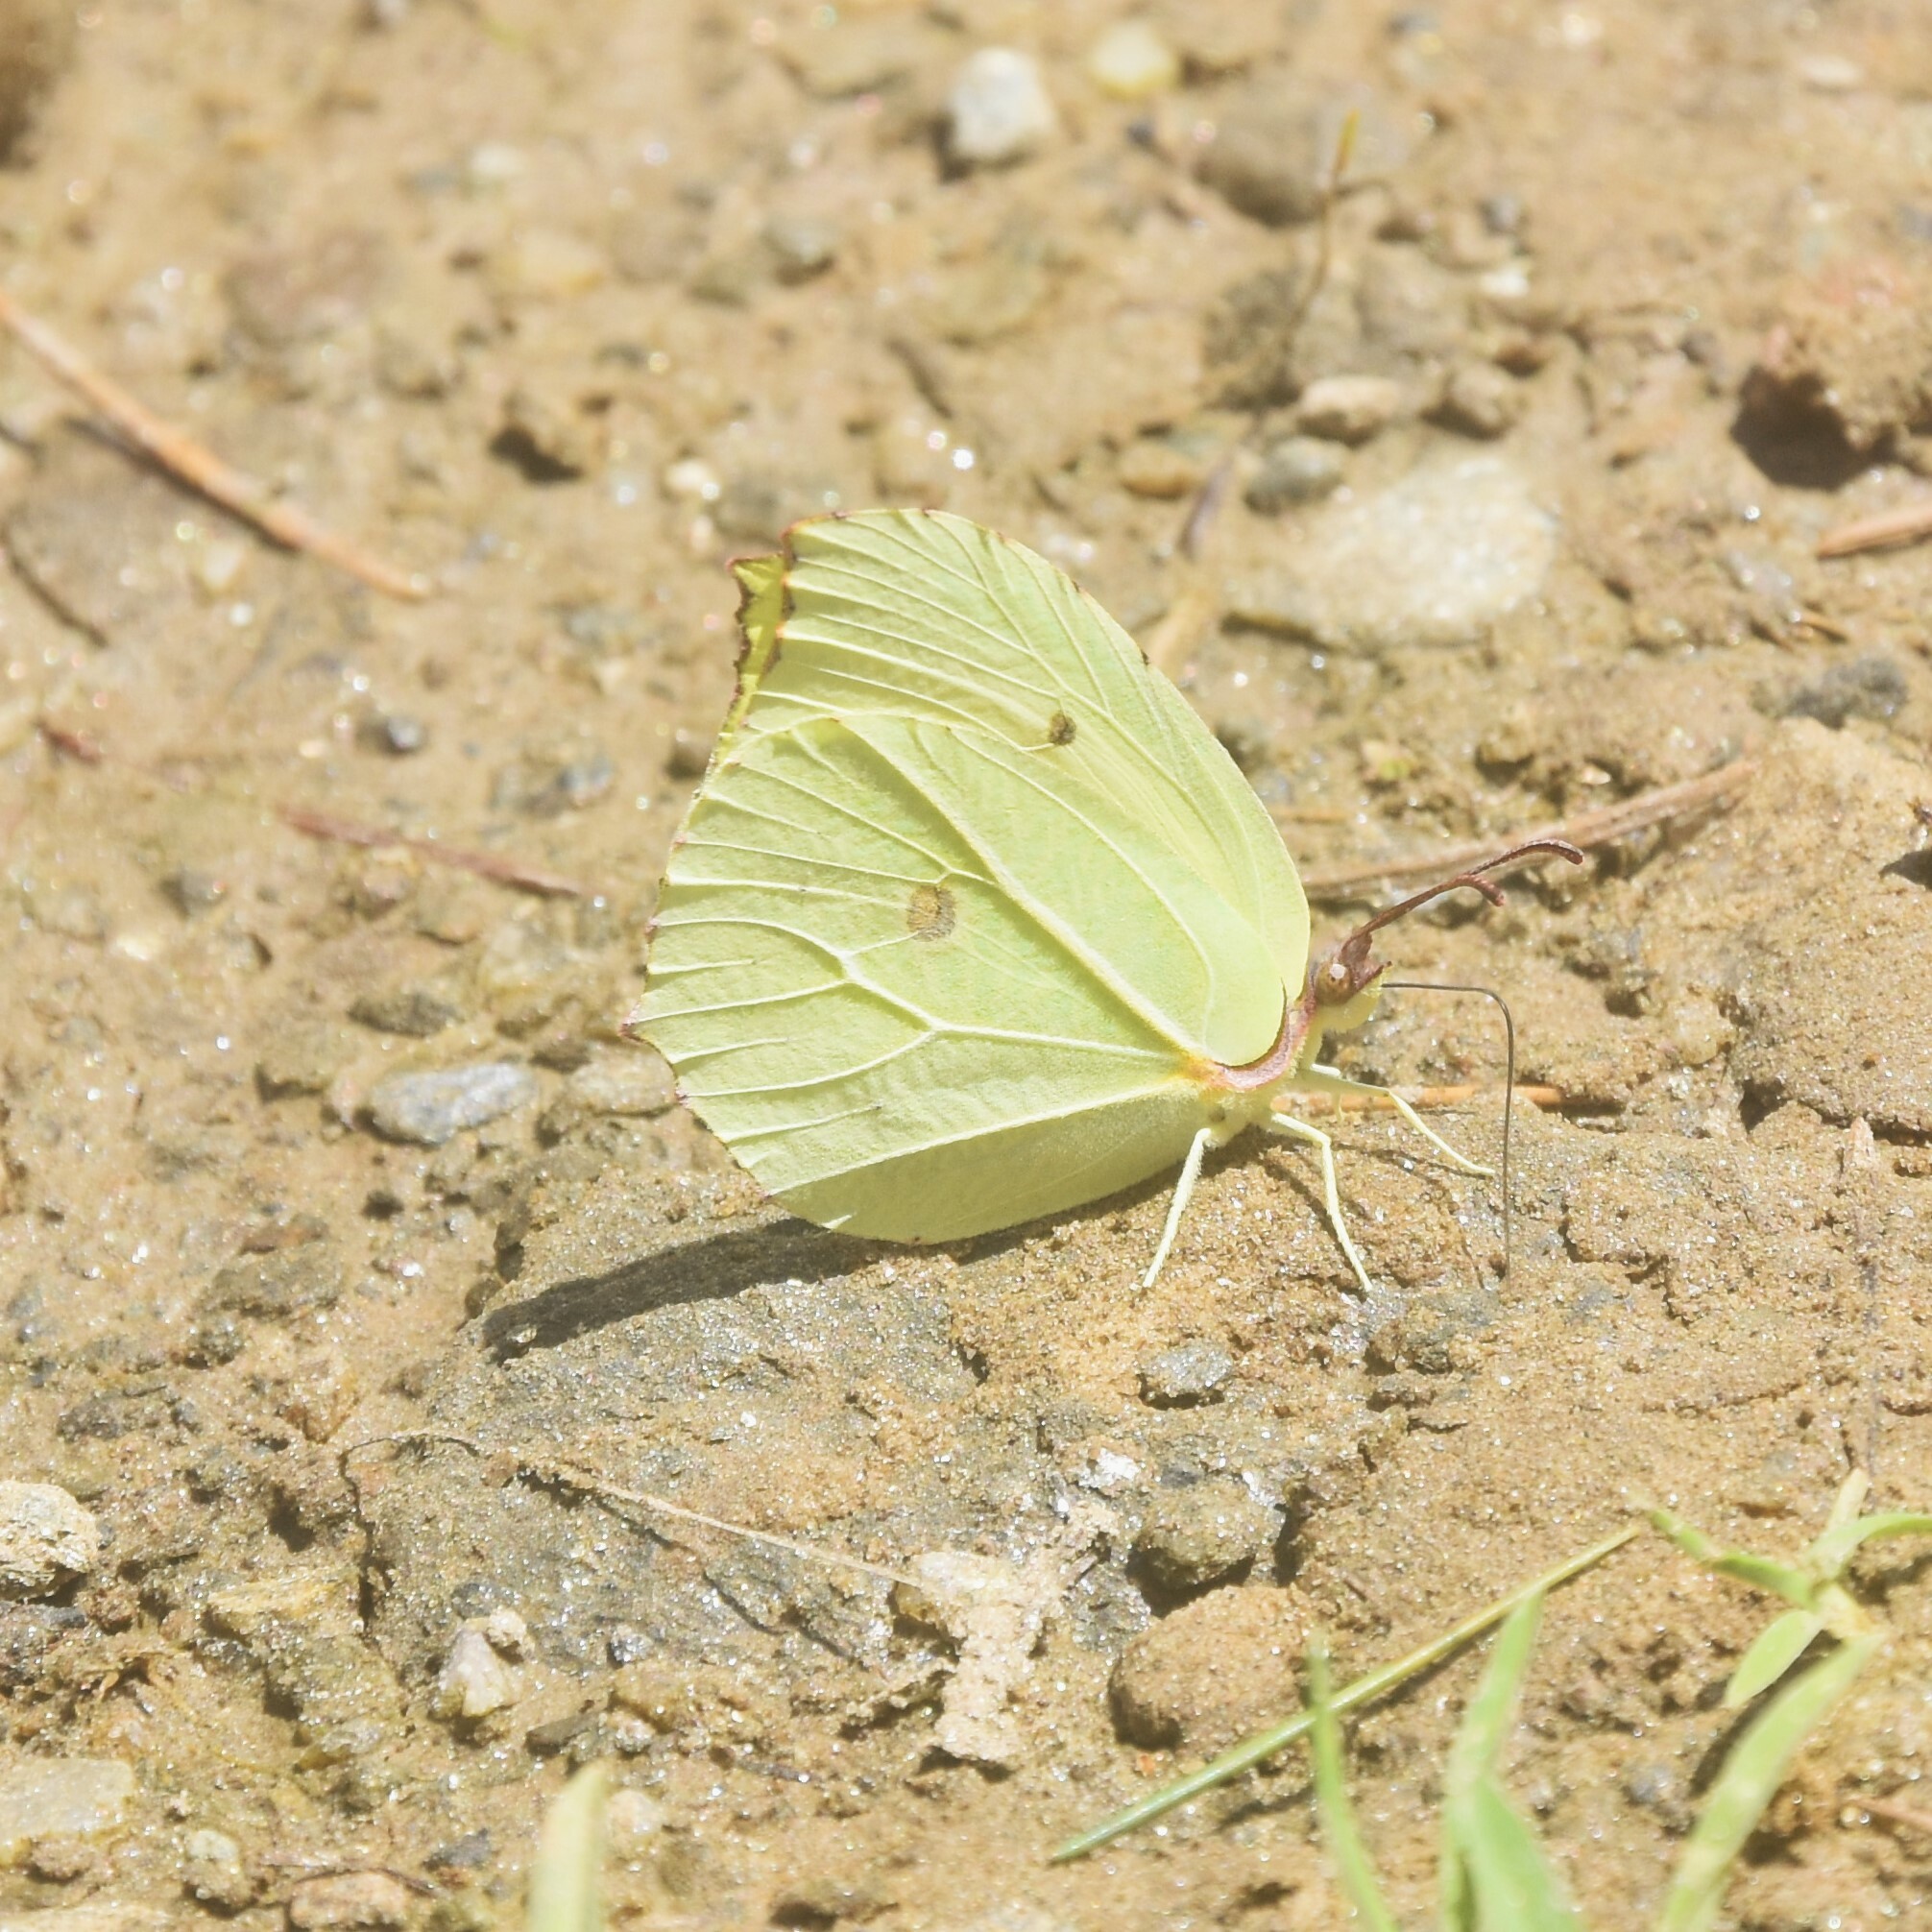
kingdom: Animalia
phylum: Arthropoda
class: Insecta
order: Lepidoptera
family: Pieridae
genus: Gonepteryx
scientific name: Gonepteryx
